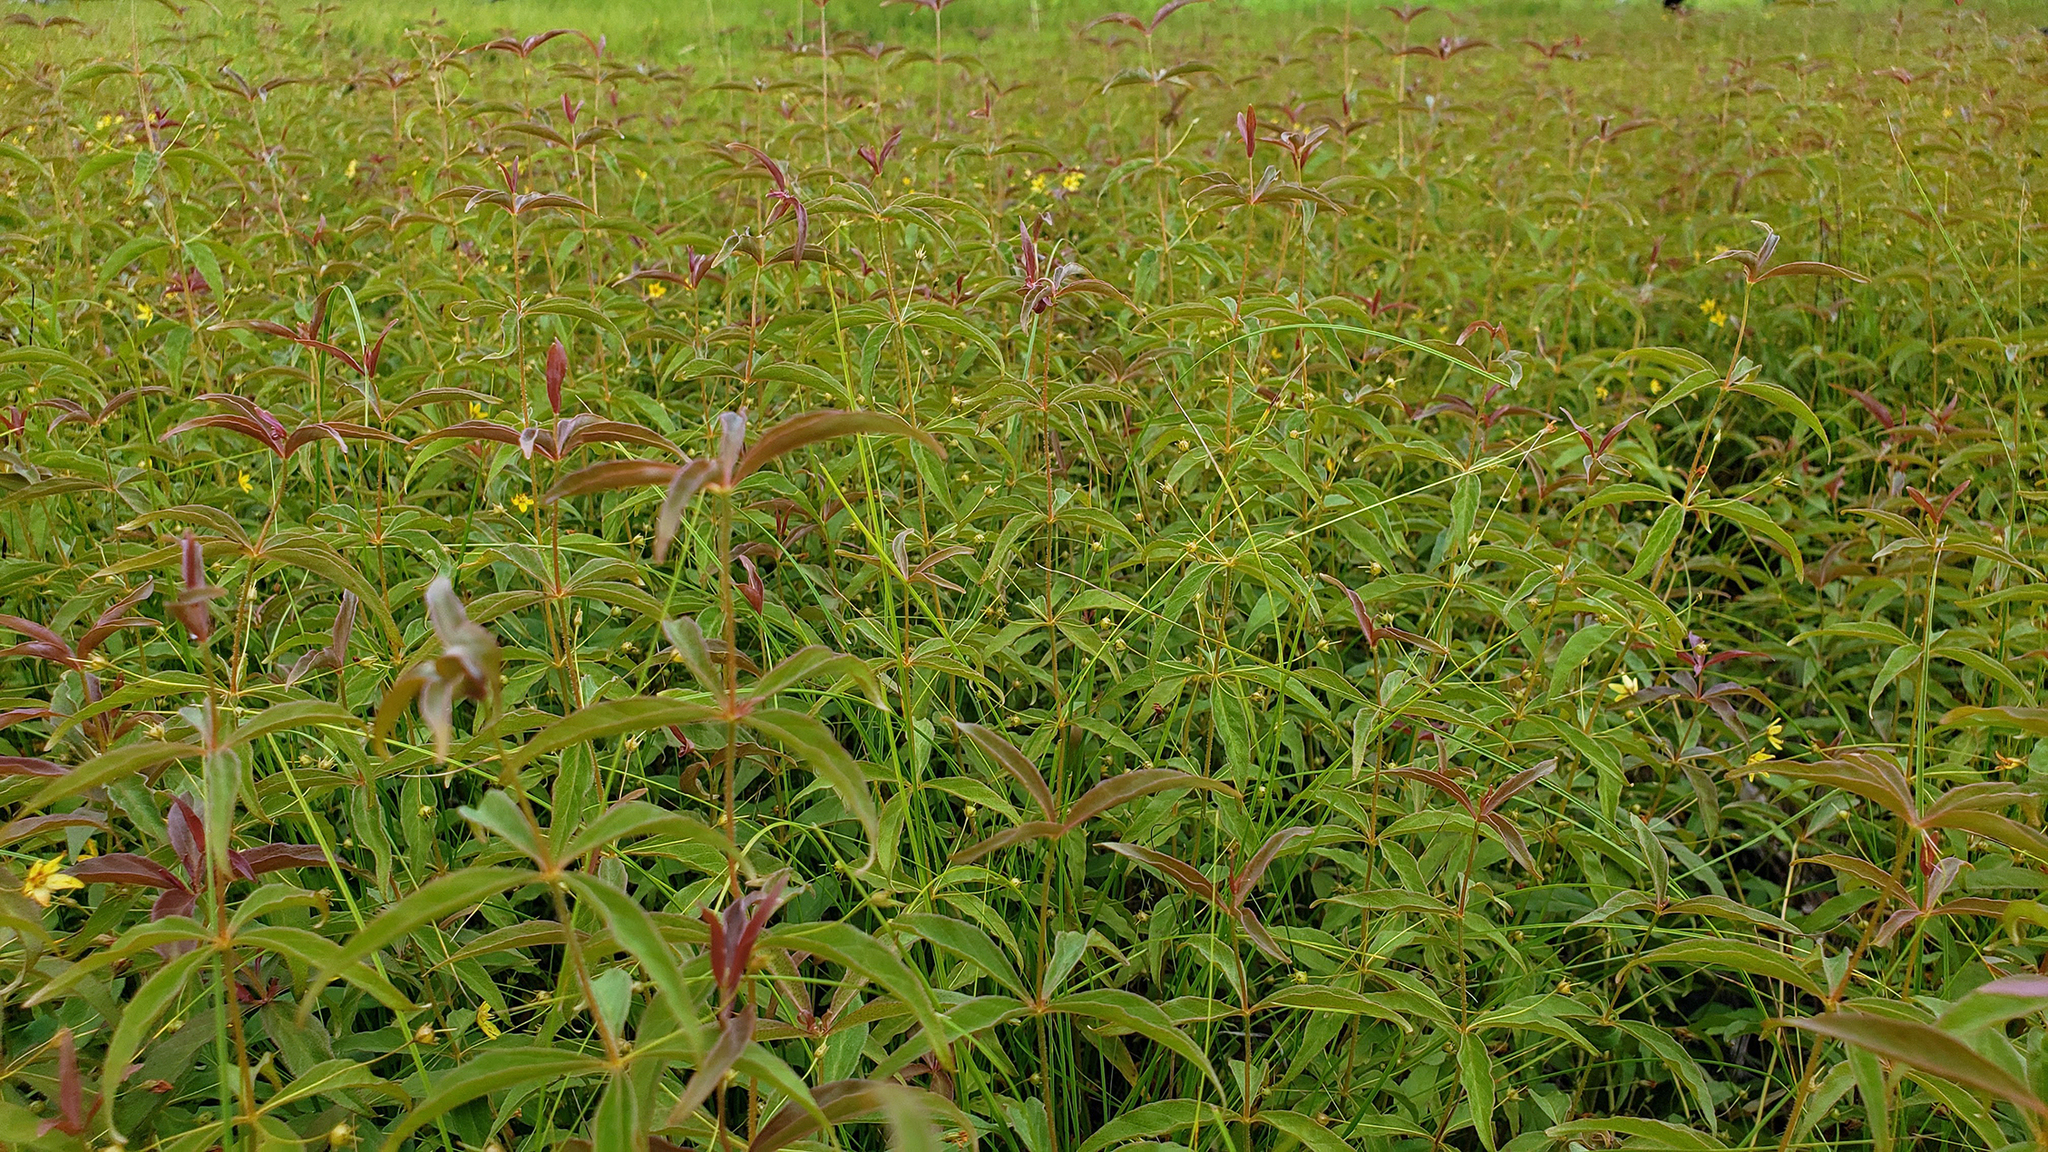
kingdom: Plantae
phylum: Tracheophyta
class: Magnoliopsida
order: Ericales
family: Primulaceae
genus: Lysimachia
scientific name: Lysimachia quadrifolia
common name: Whorled loosestrife
